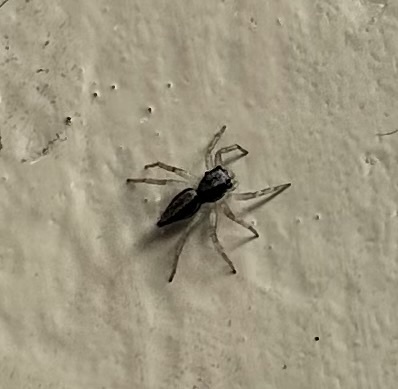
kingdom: Animalia
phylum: Arthropoda
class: Arachnida
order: Araneae
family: Salticidae
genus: Zenodorus
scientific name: Zenodorus swiftorum
